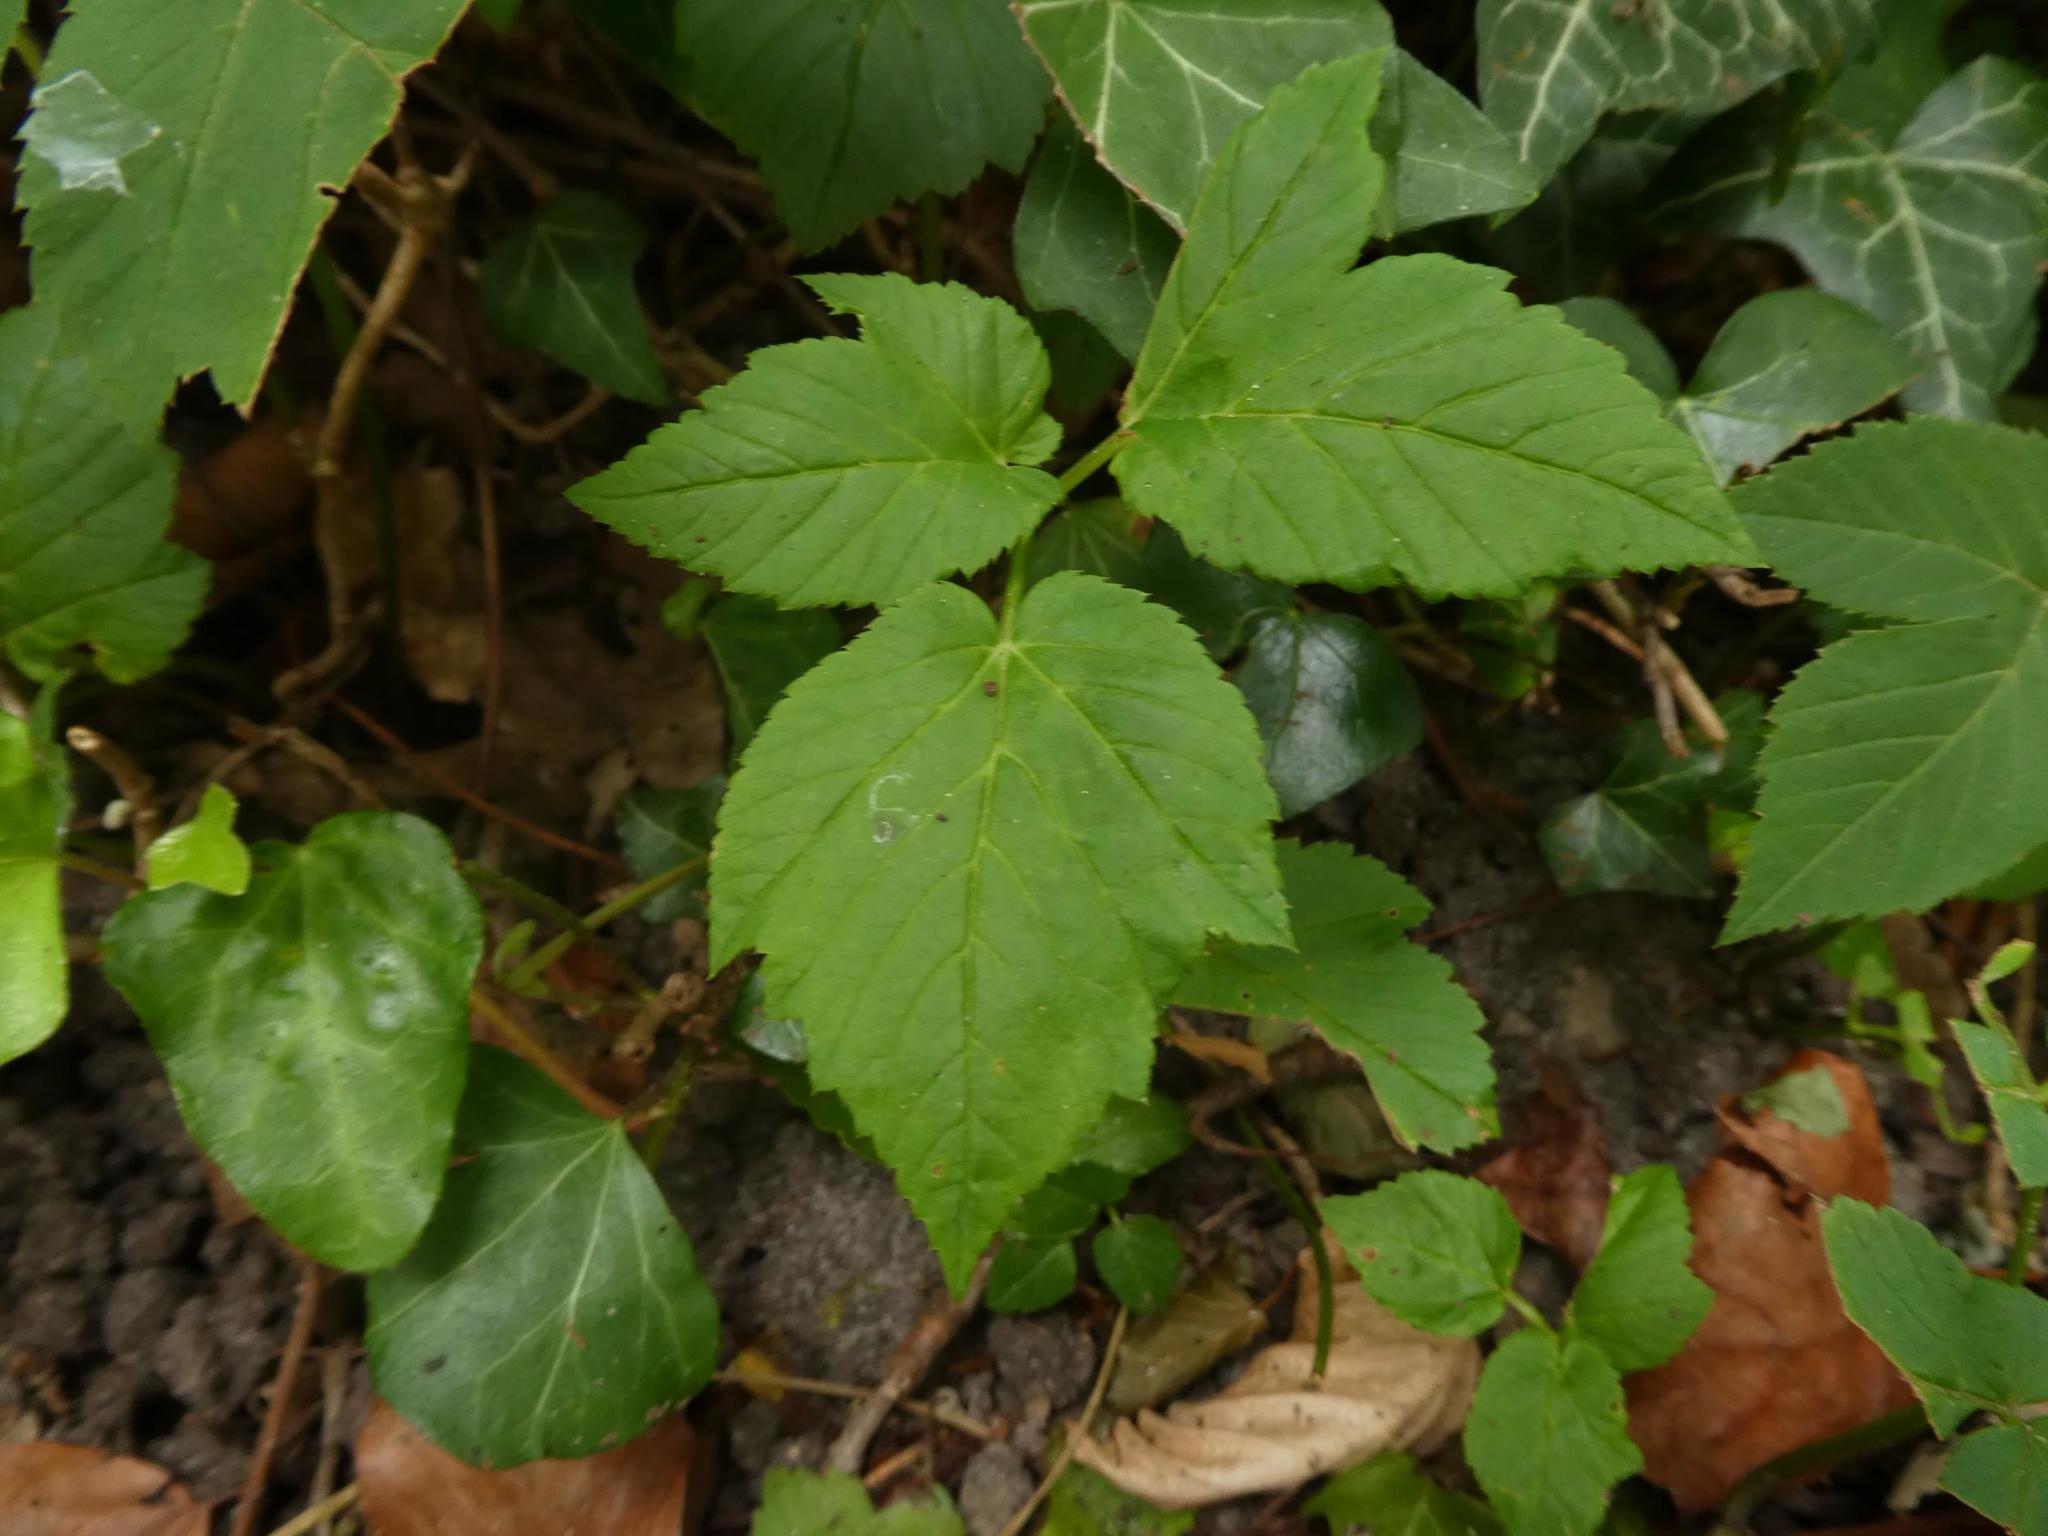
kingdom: Plantae
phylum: Tracheophyta
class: Magnoliopsida
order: Apiales
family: Apiaceae
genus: Aegopodium
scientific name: Aegopodium podagraria
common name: Ground-elder
